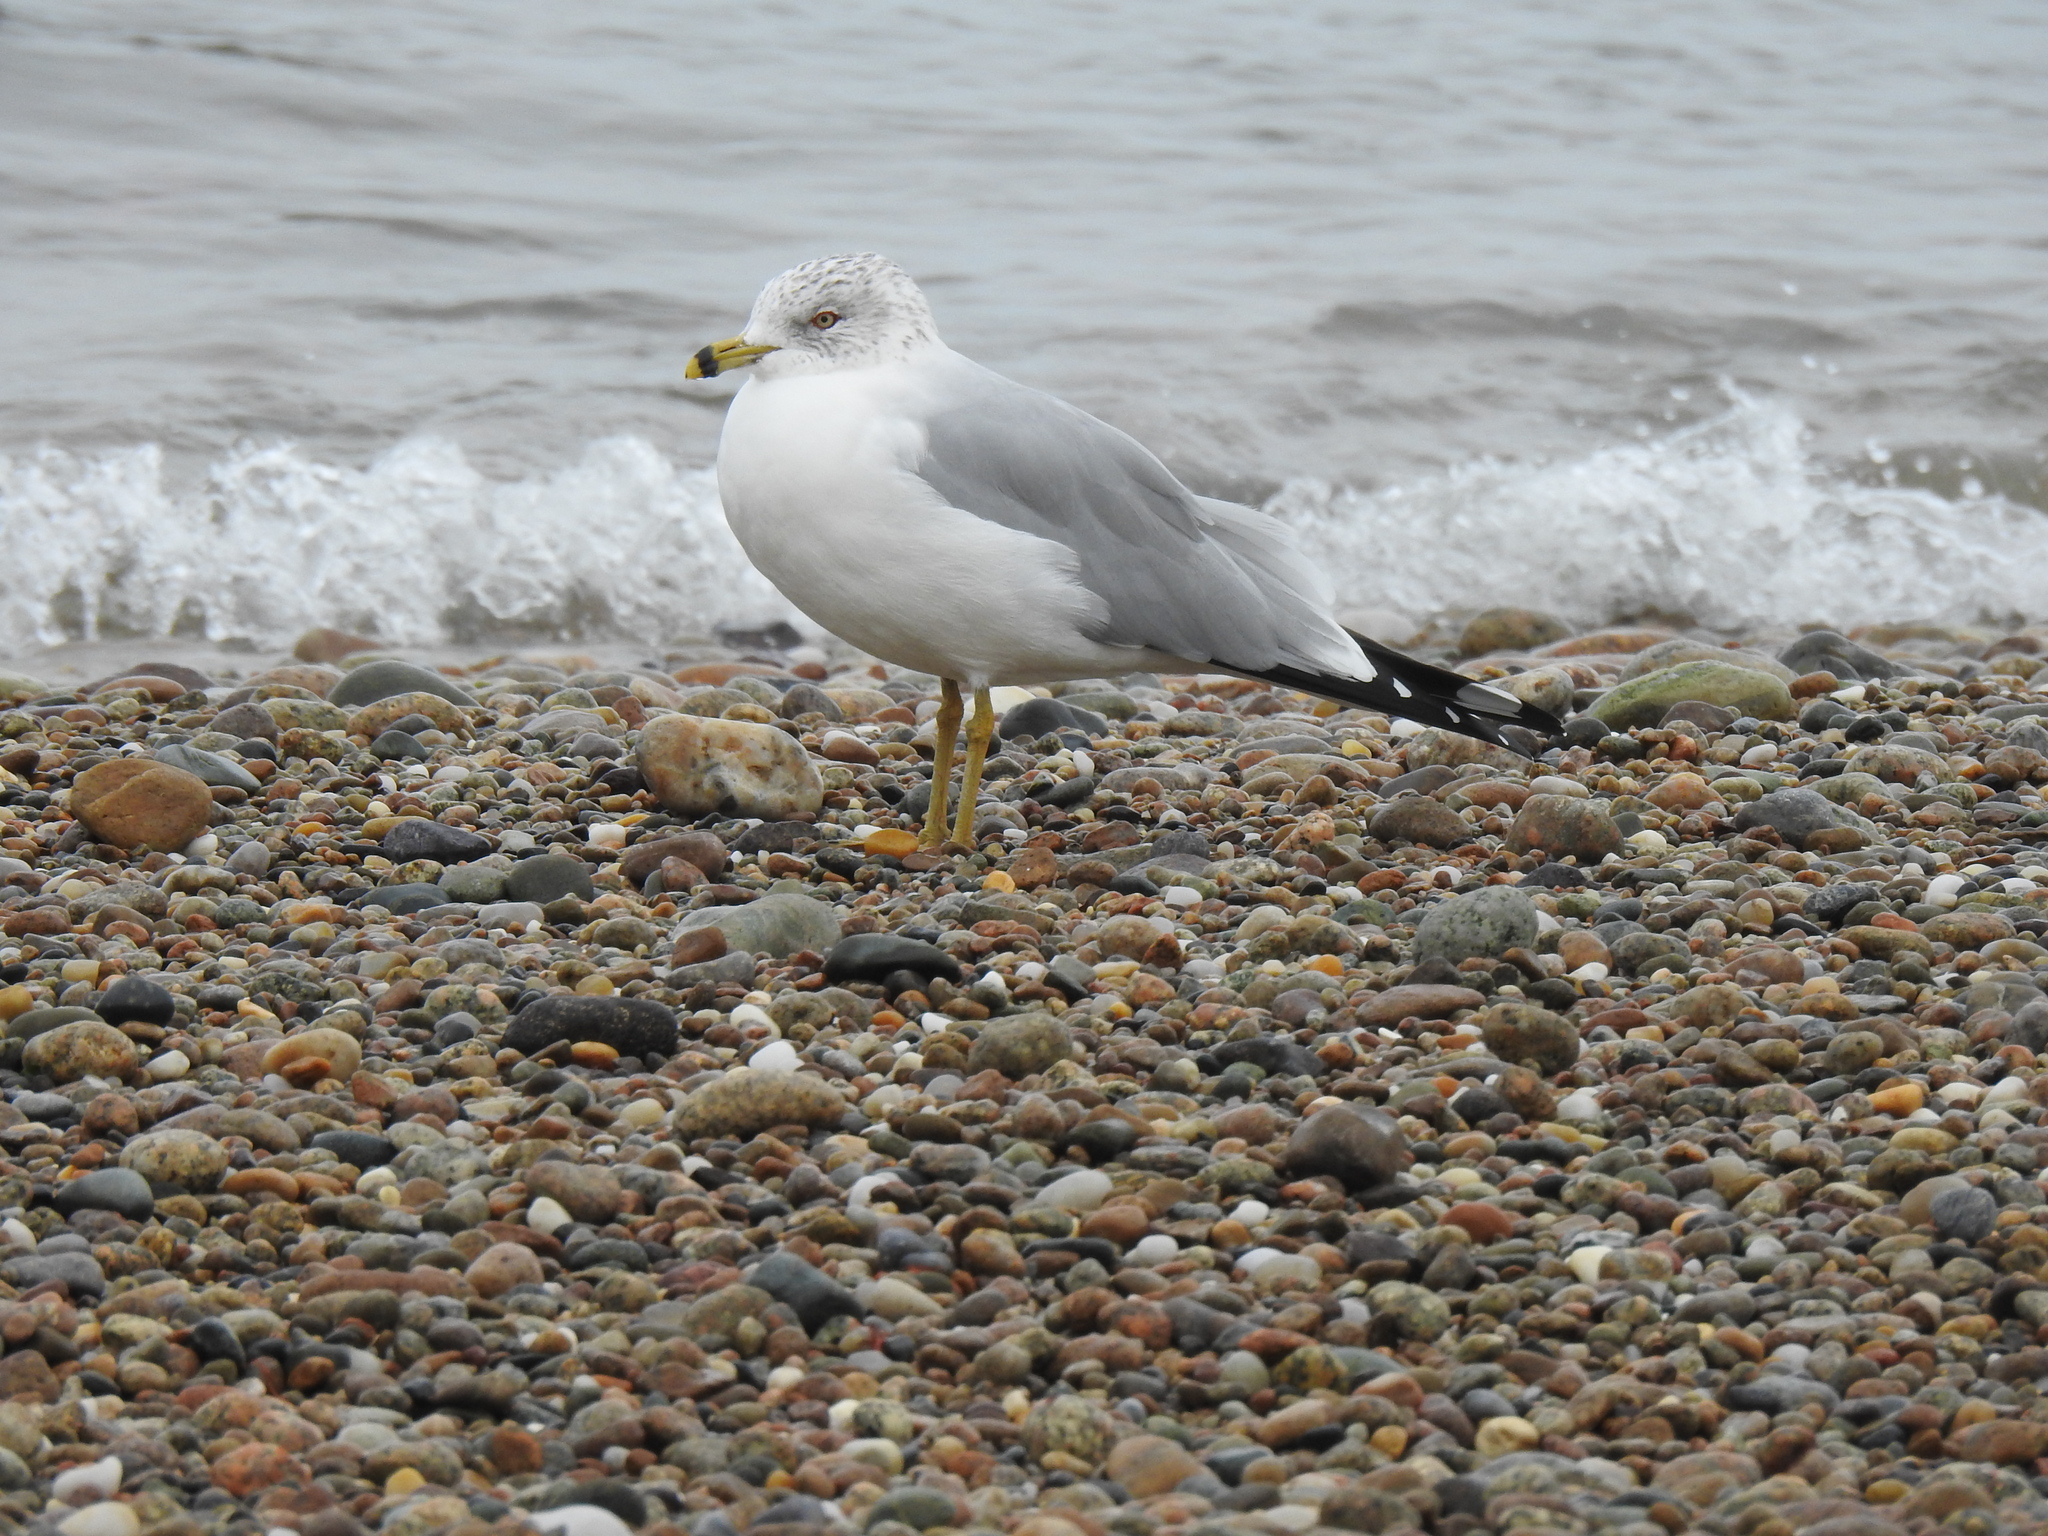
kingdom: Animalia
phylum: Chordata
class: Aves
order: Charadriiformes
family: Laridae
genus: Larus
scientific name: Larus delawarensis
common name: Ring-billed gull
